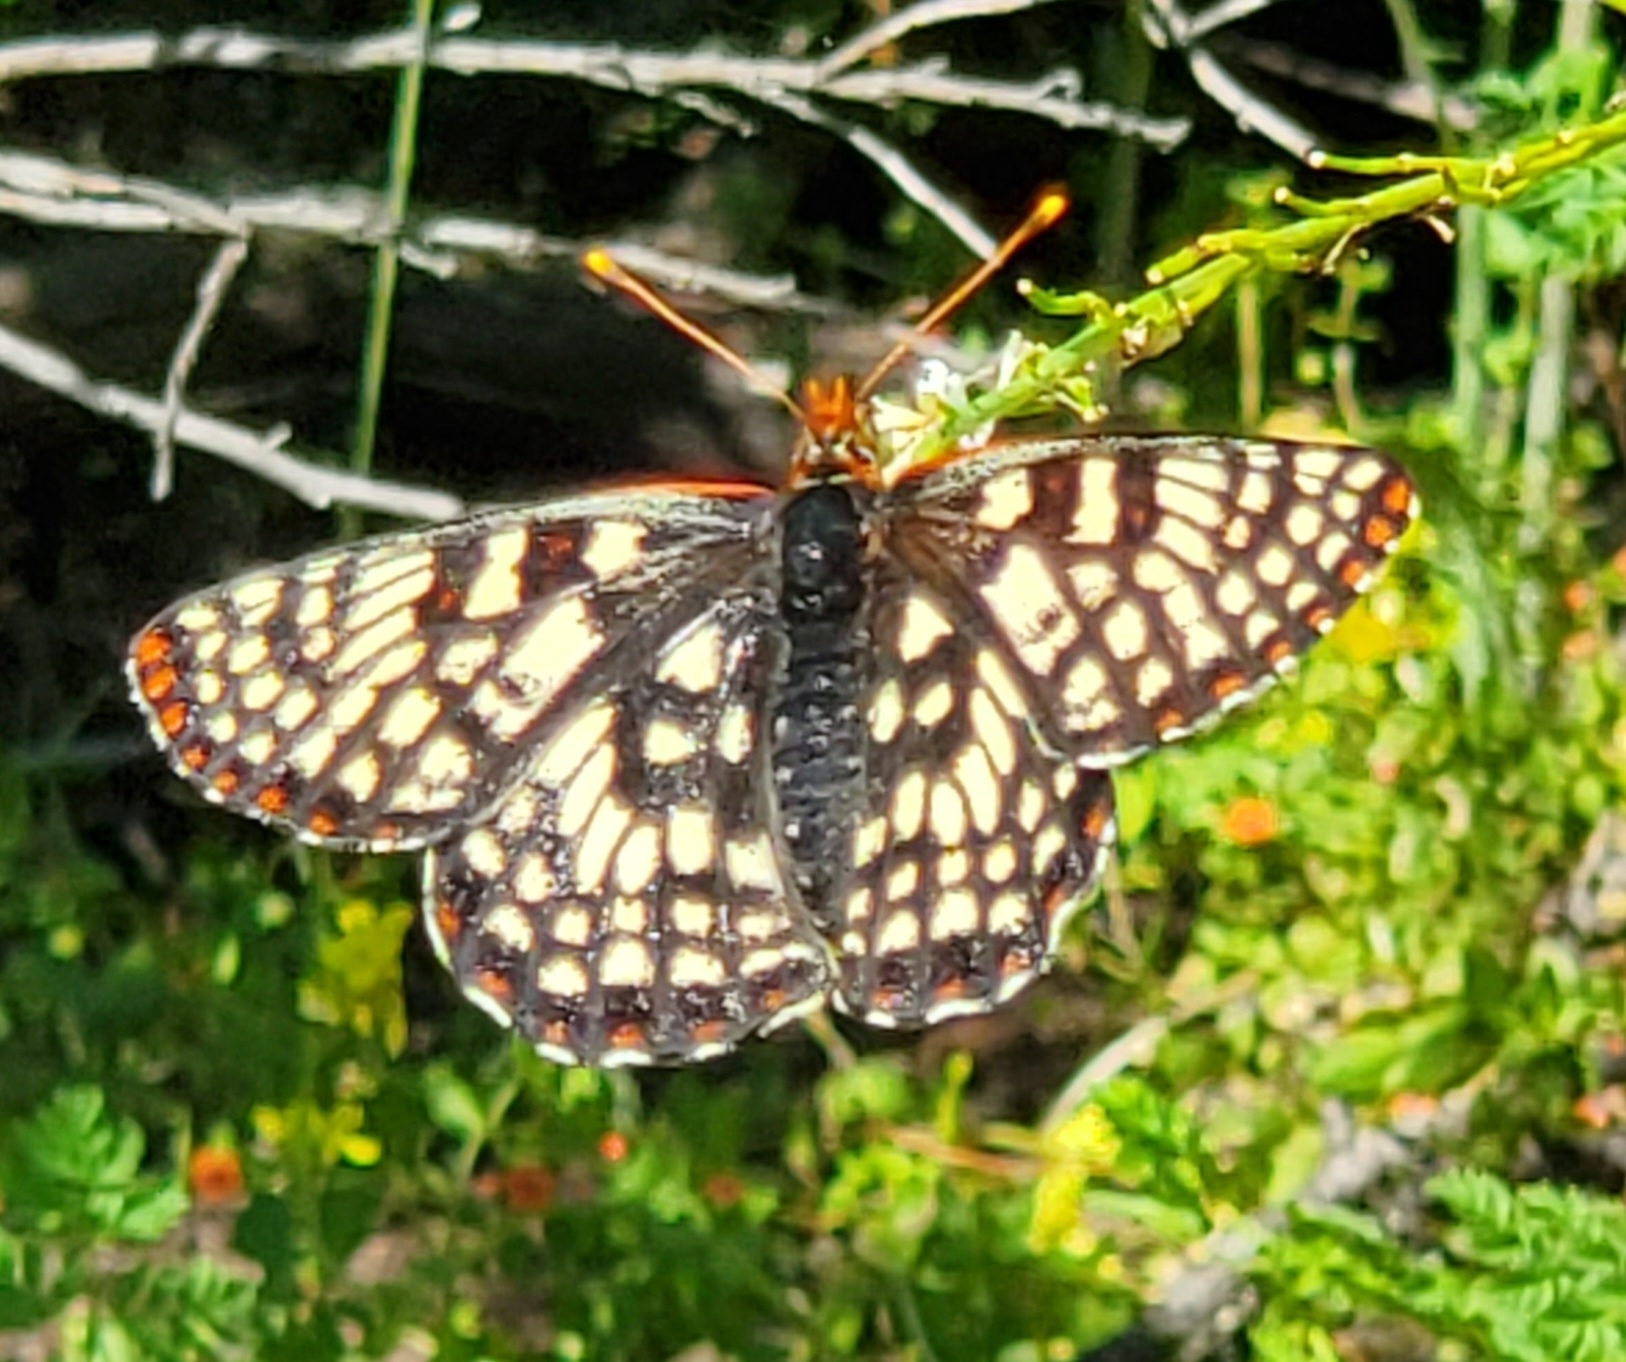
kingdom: Animalia
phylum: Arthropoda
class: Insecta
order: Lepidoptera
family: Nymphalidae
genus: Occidryas
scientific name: Occidryas chalcedona
